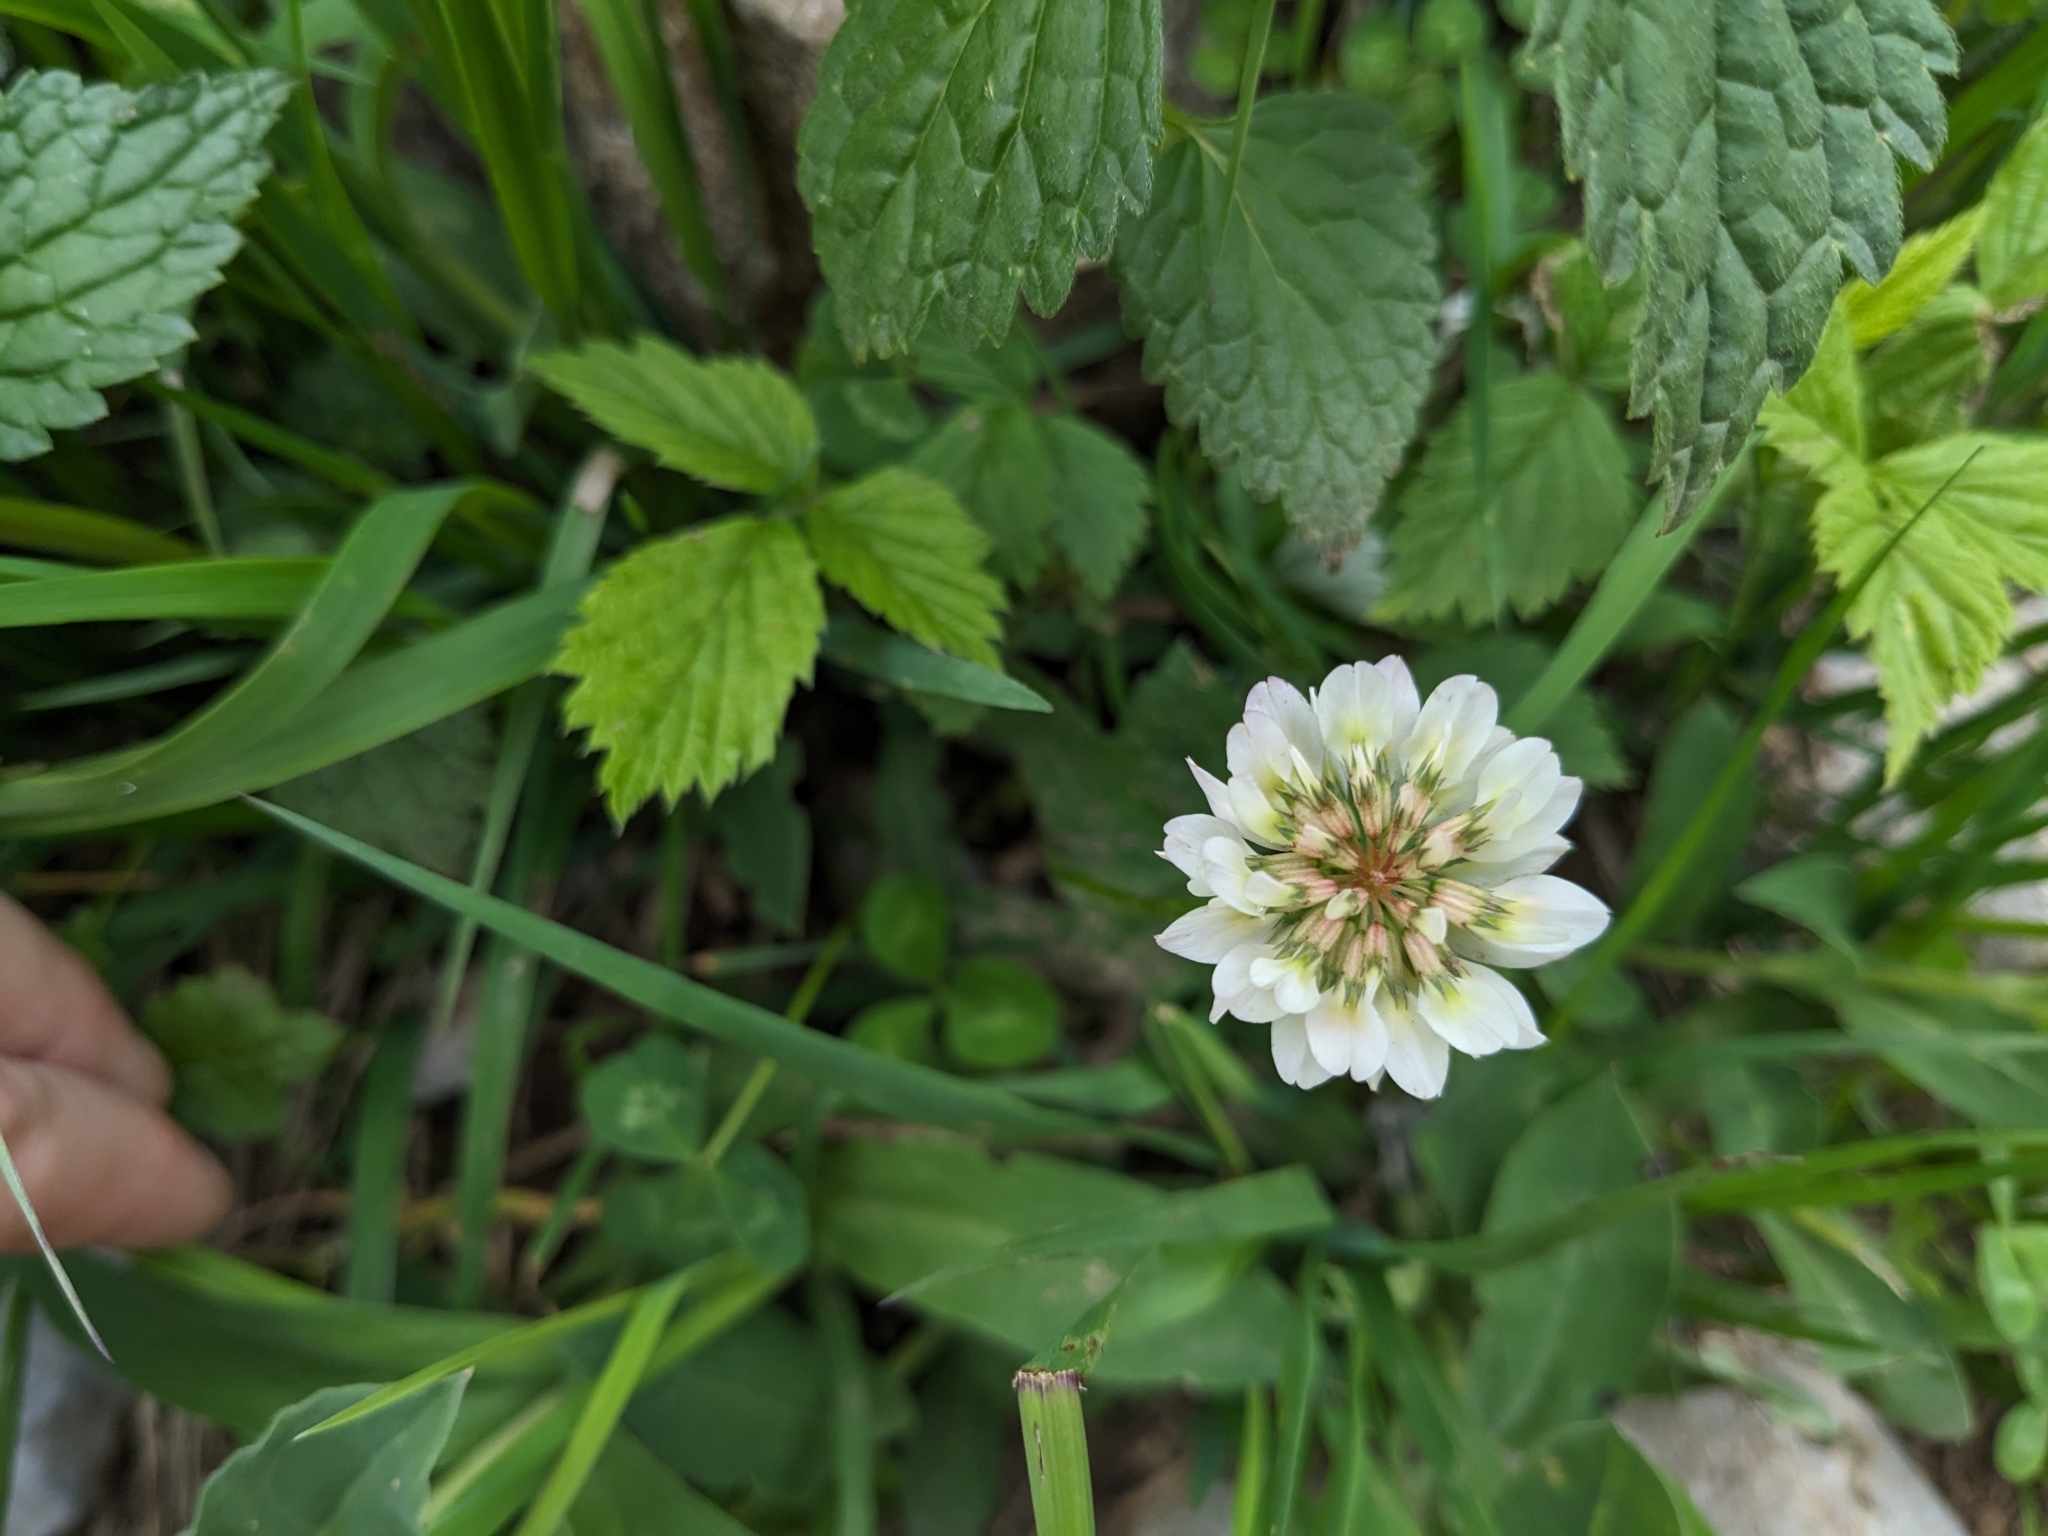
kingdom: Plantae
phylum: Tracheophyta
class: Magnoliopsida
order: Fabales
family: Fabaceae
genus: Trifolium
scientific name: Trifolium repens
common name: White clover
